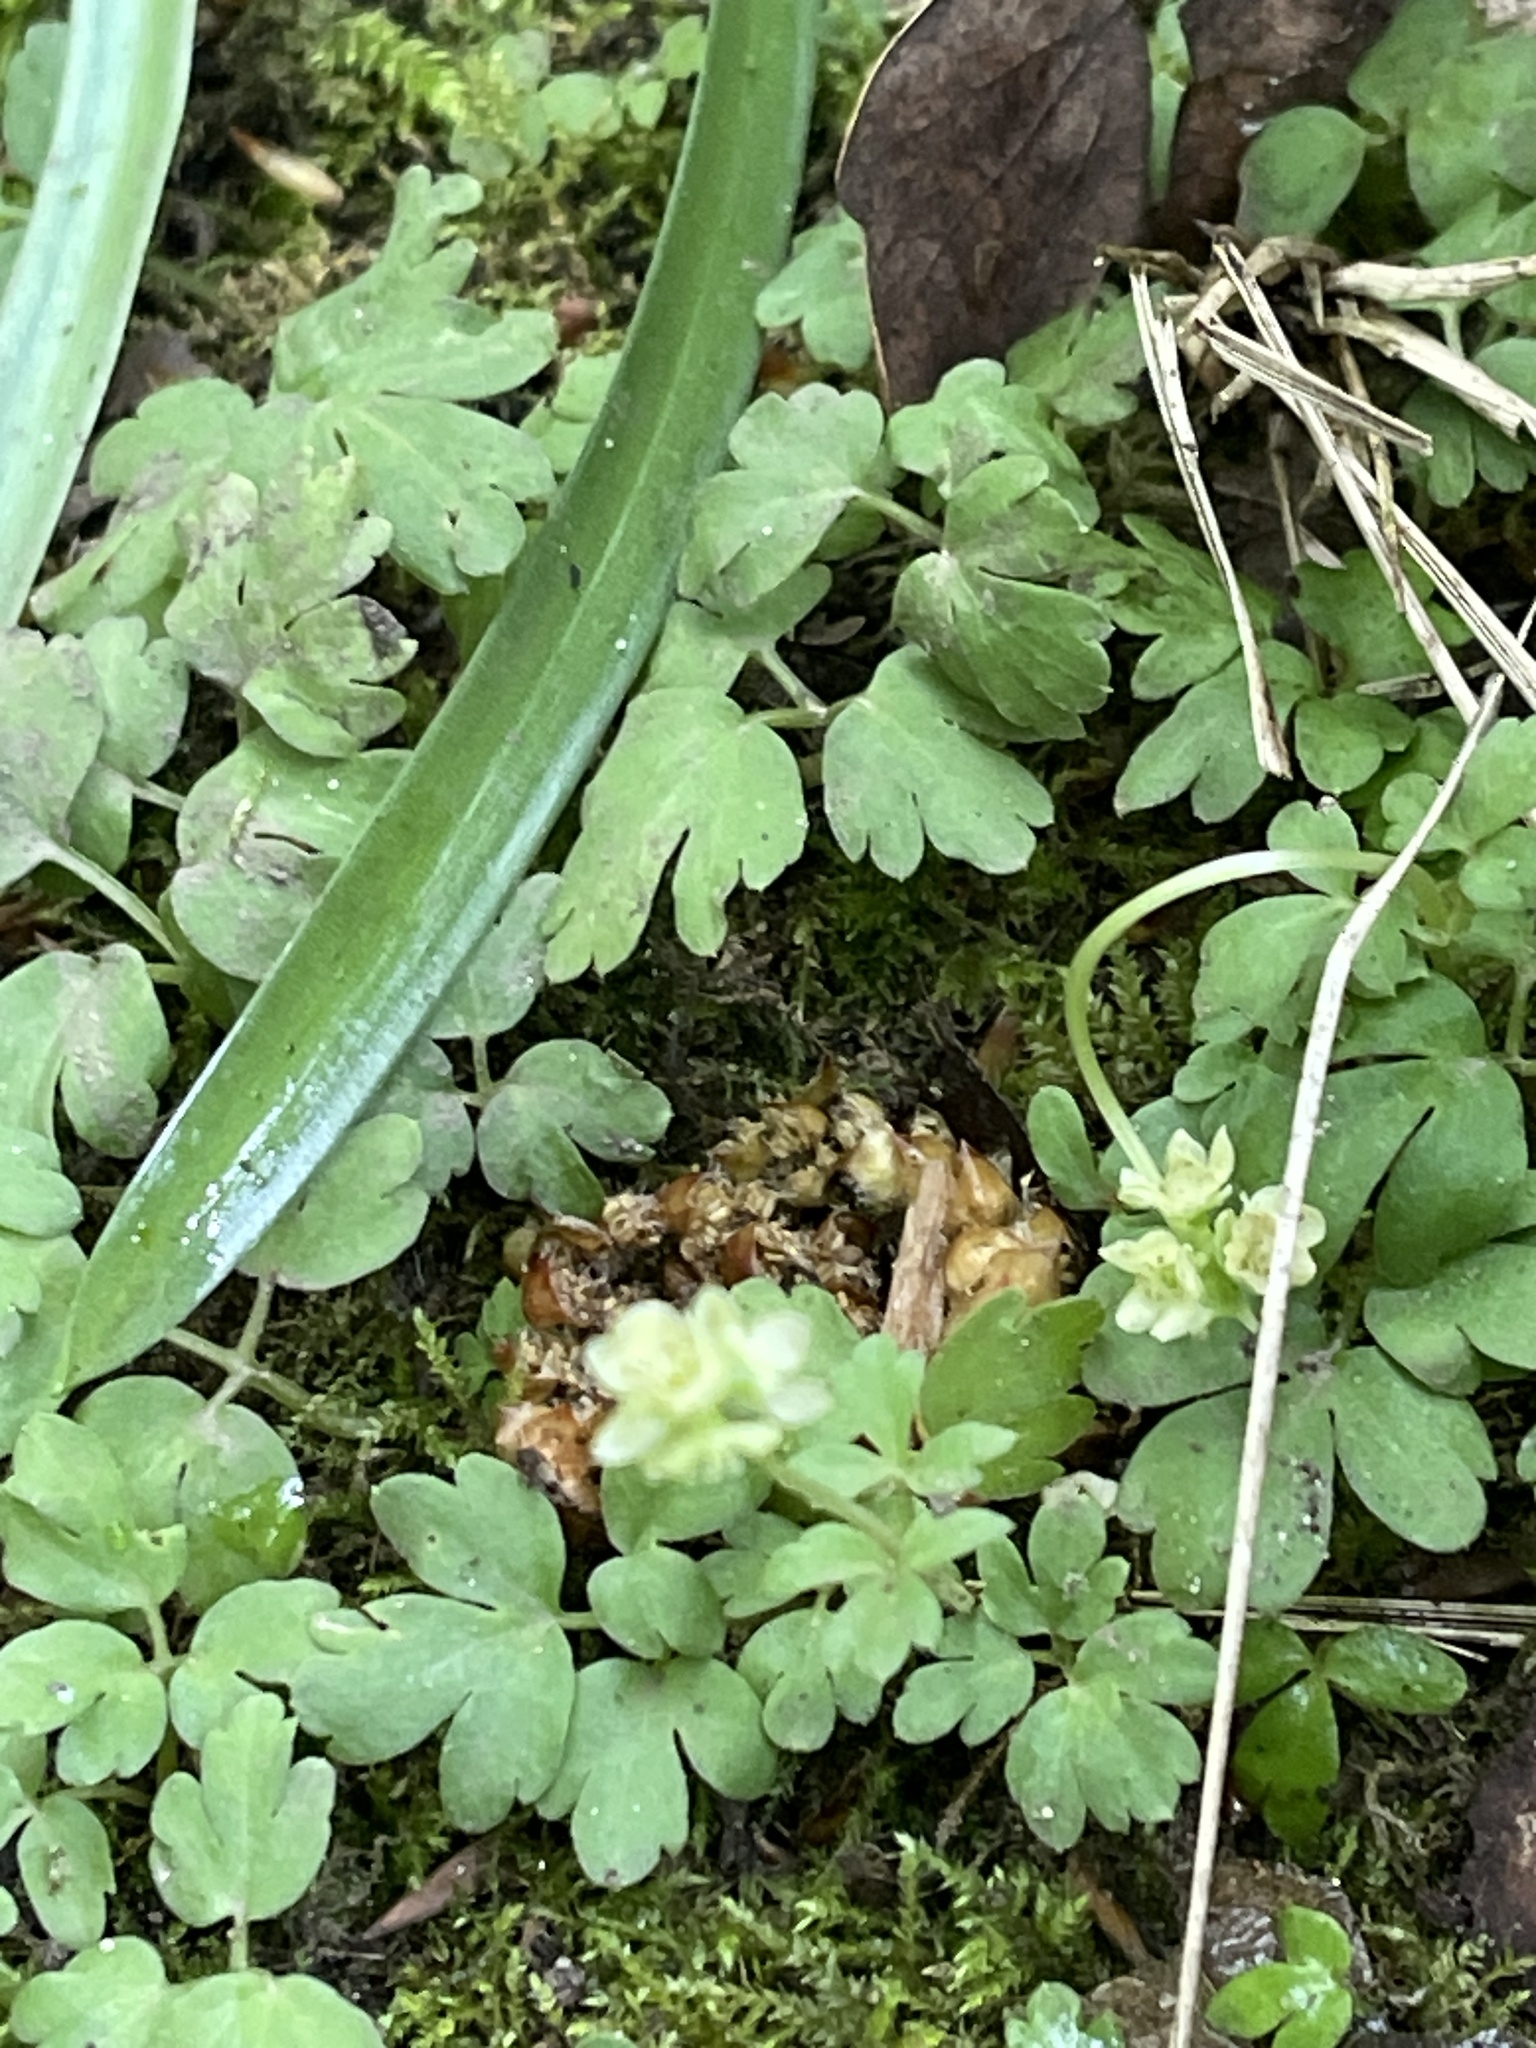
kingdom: Plantae
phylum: Tracheophyta
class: Magnoliopsida
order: Dipsacales
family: Viburnaceae
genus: Adoxa
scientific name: Adoxa moschatellina
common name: Moschatel
